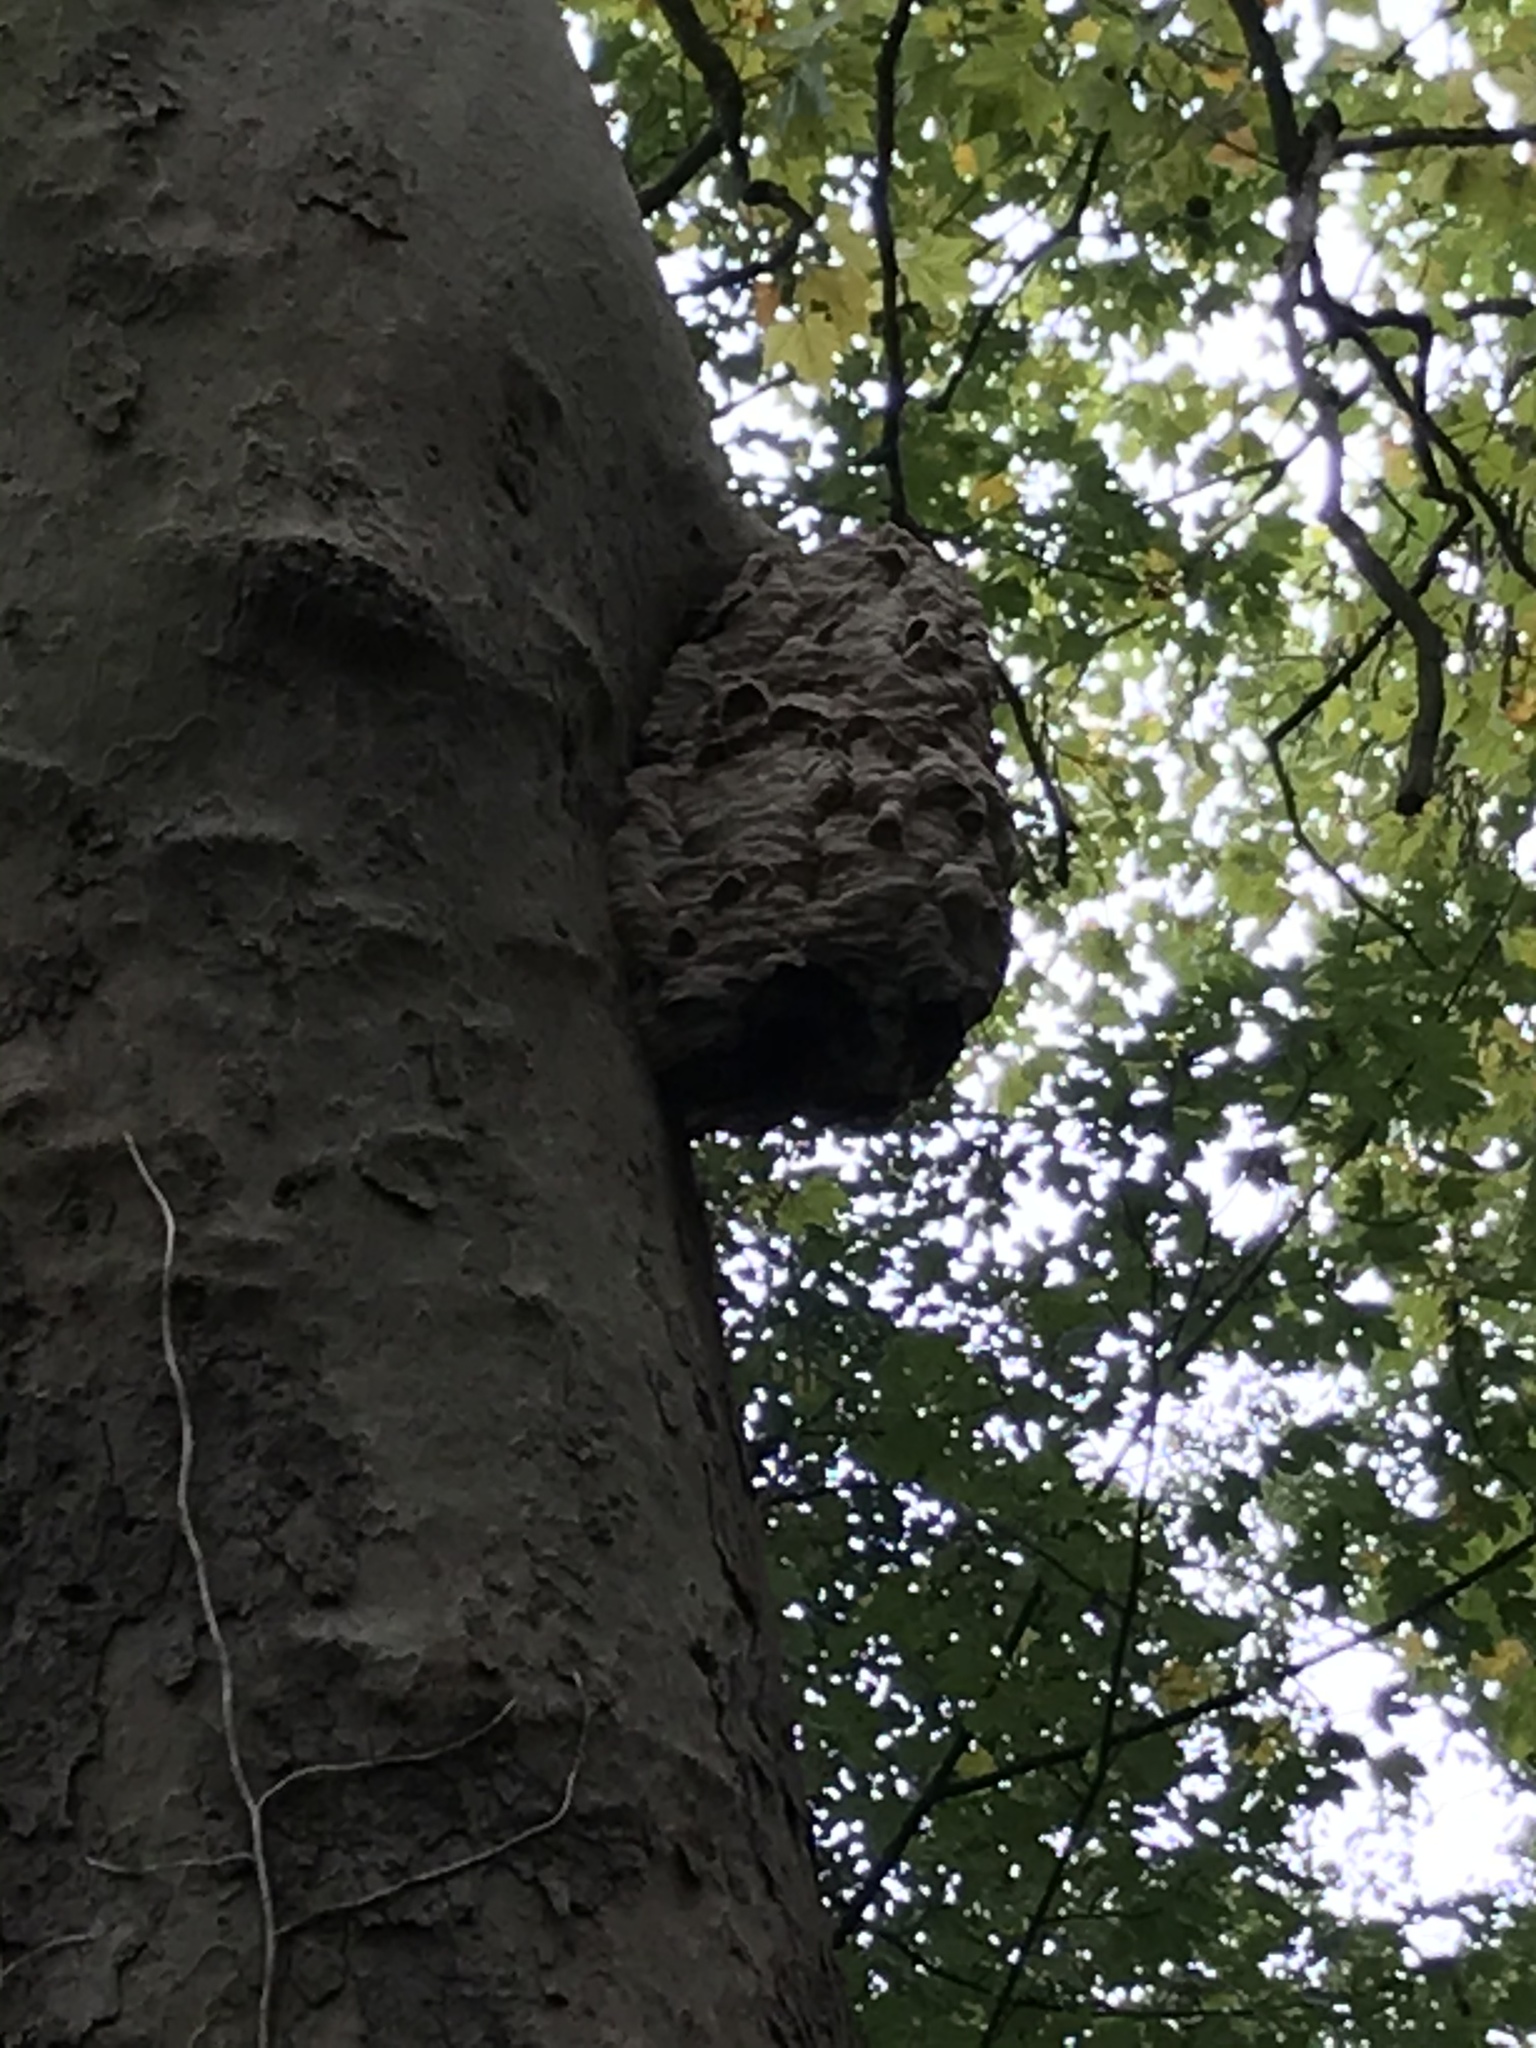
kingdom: Animalia
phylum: Arthropoda
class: Insecta
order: Hymenoptera
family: Vespidae
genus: Vespa
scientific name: Vespa crabro
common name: Hornet
